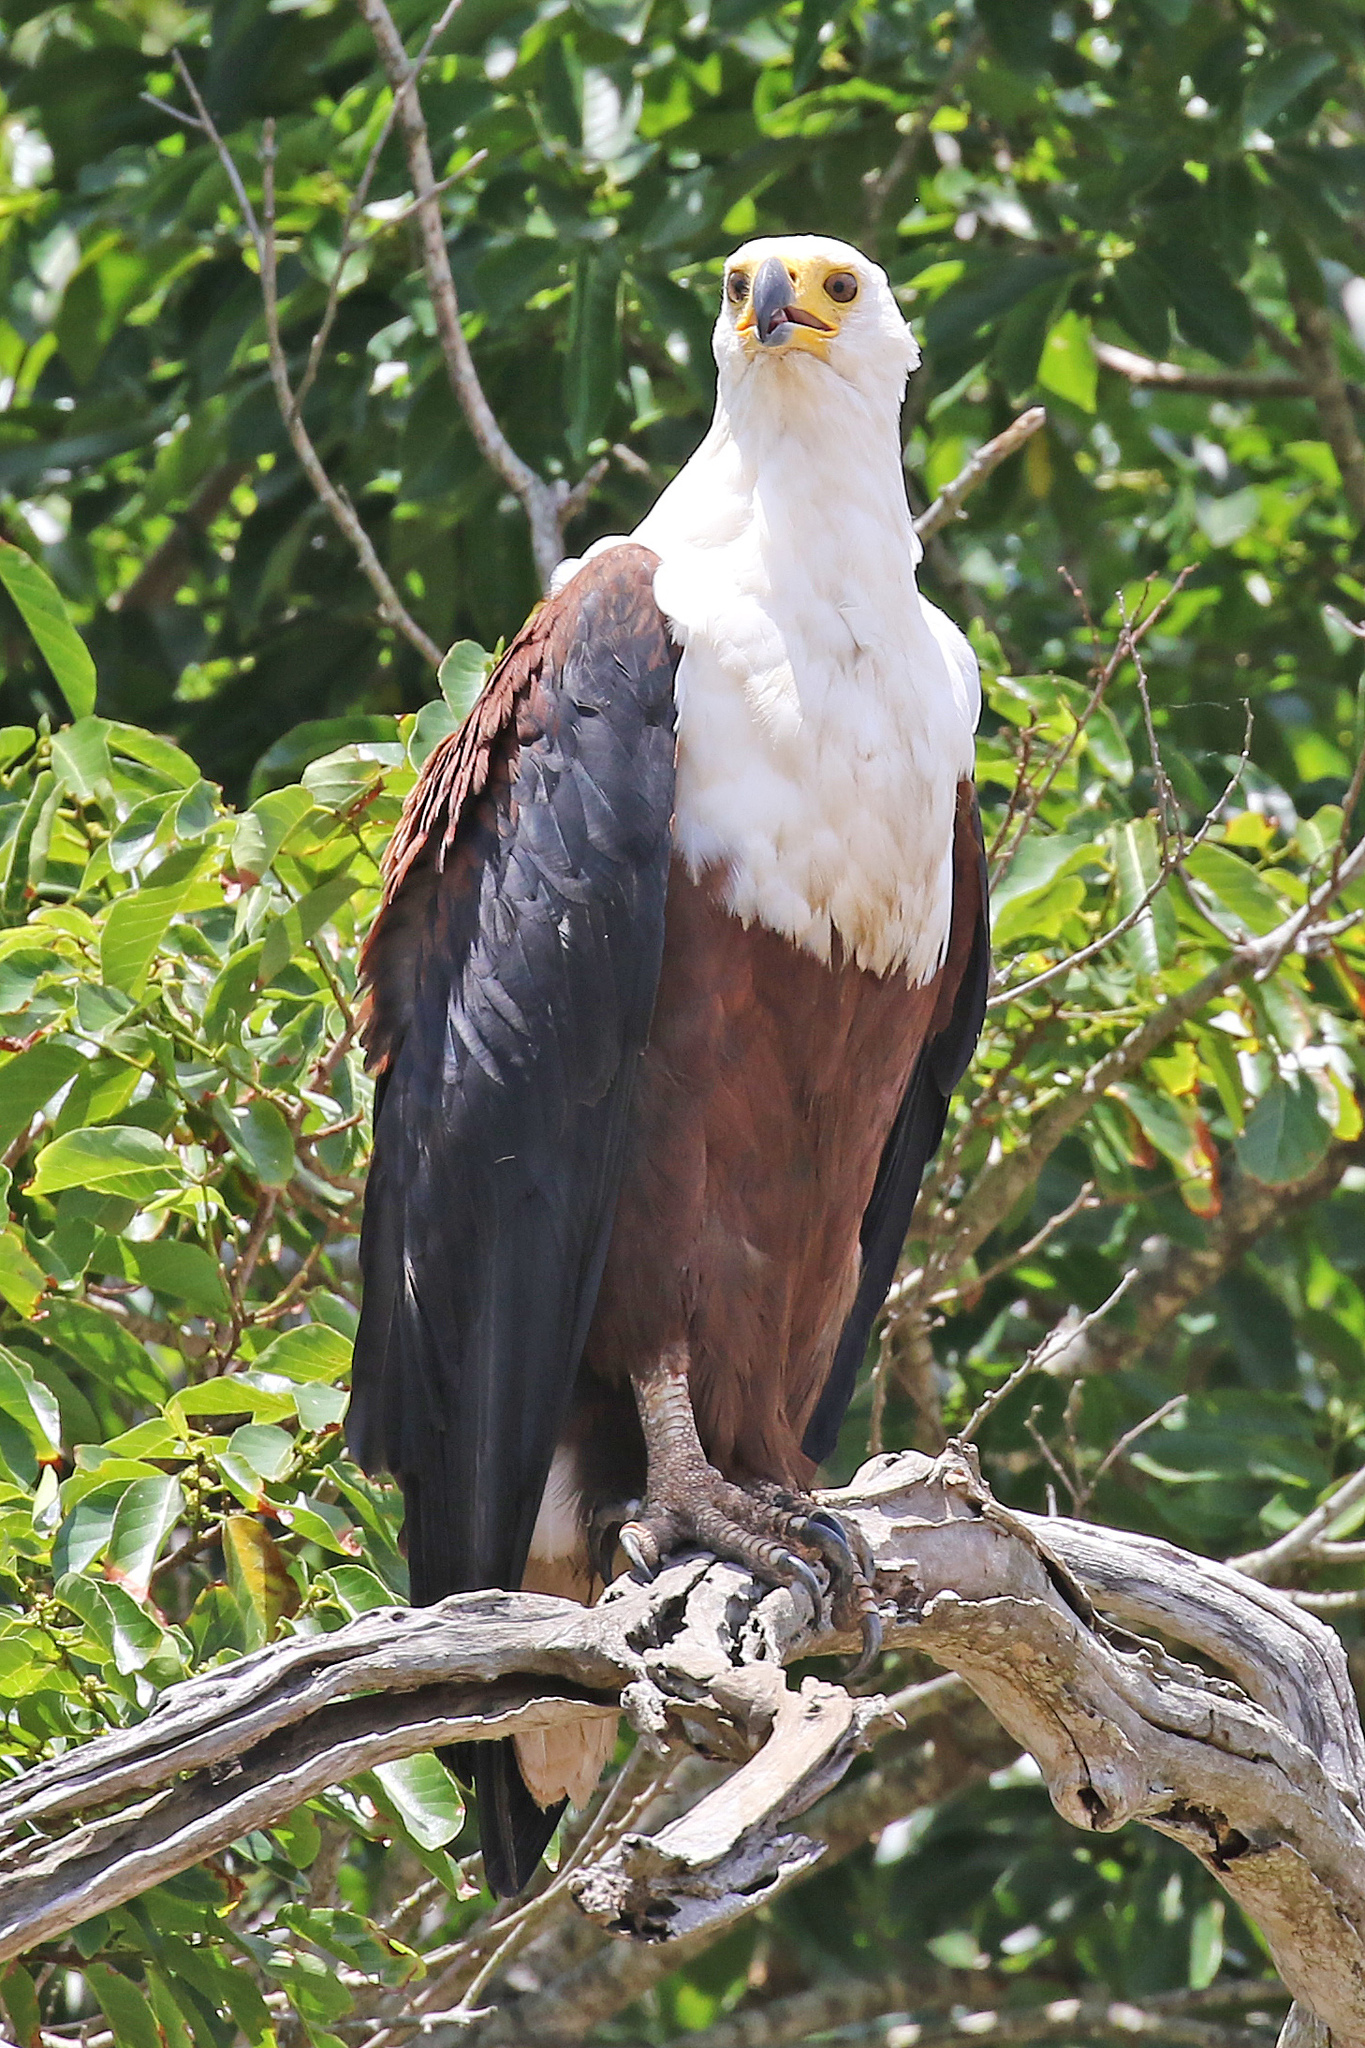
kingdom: Animalia
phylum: Chordata
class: Aves
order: Accipitriformes
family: Accipitridae
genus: Haliaeetus
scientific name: Haliaeetus vocifer
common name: African fish eagle
